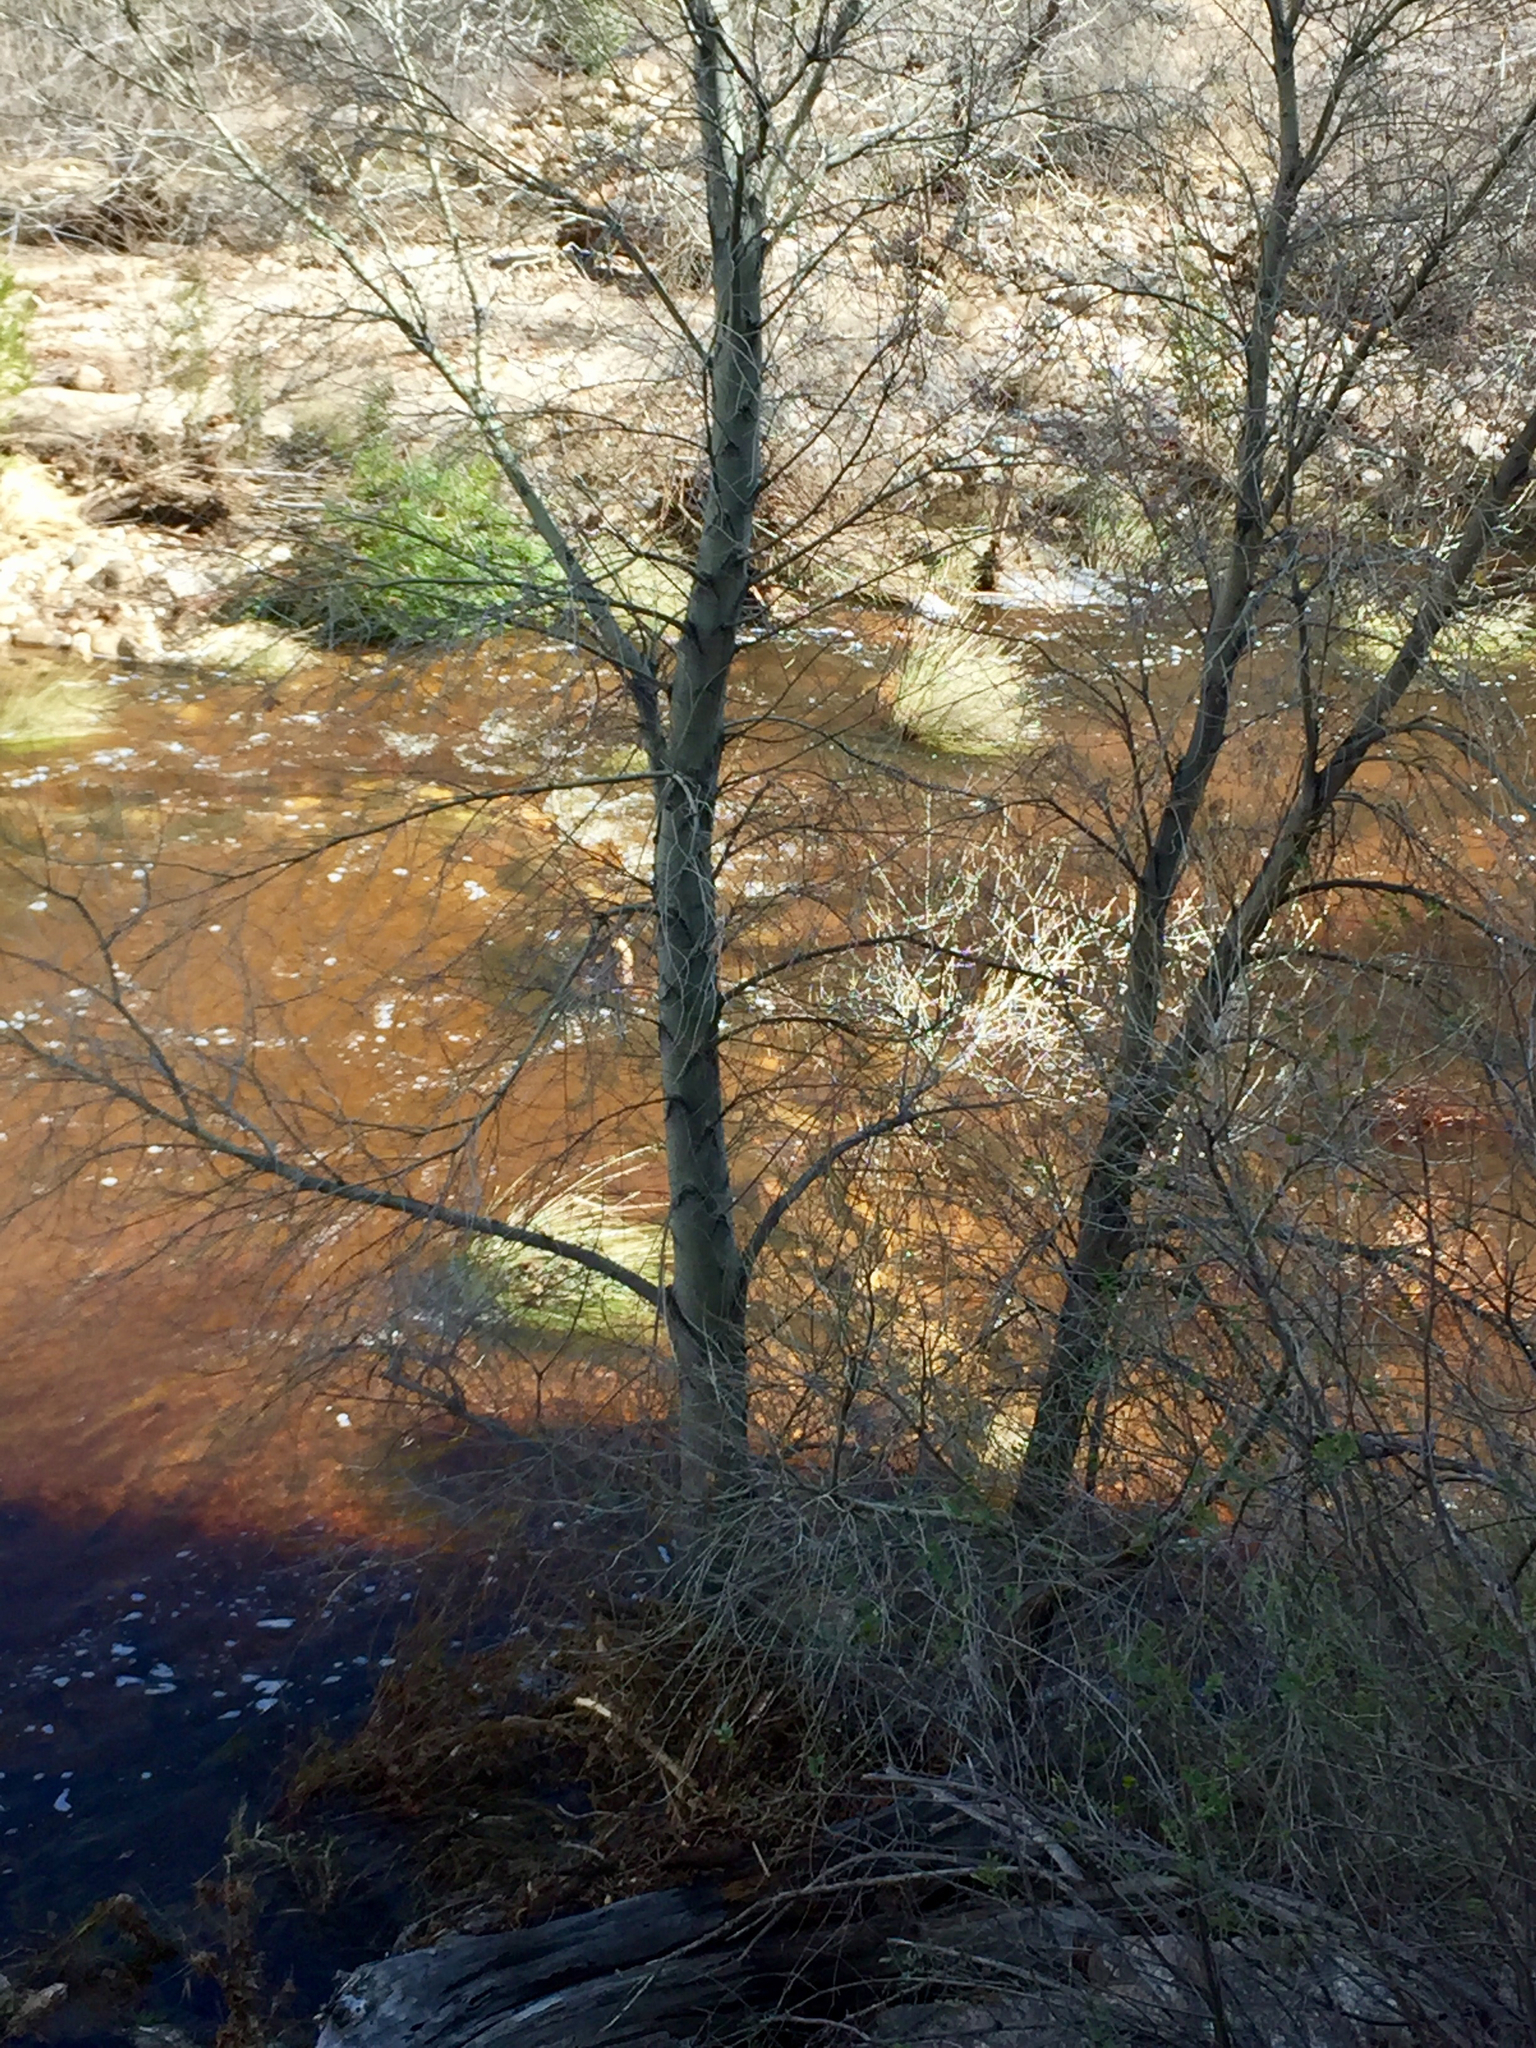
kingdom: Plantae
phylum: Tracheophyta
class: Magnoliopsida
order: Malpighiales
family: Salicaceae
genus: Populus
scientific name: Populus fremontii
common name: Fremont's cottonwood
